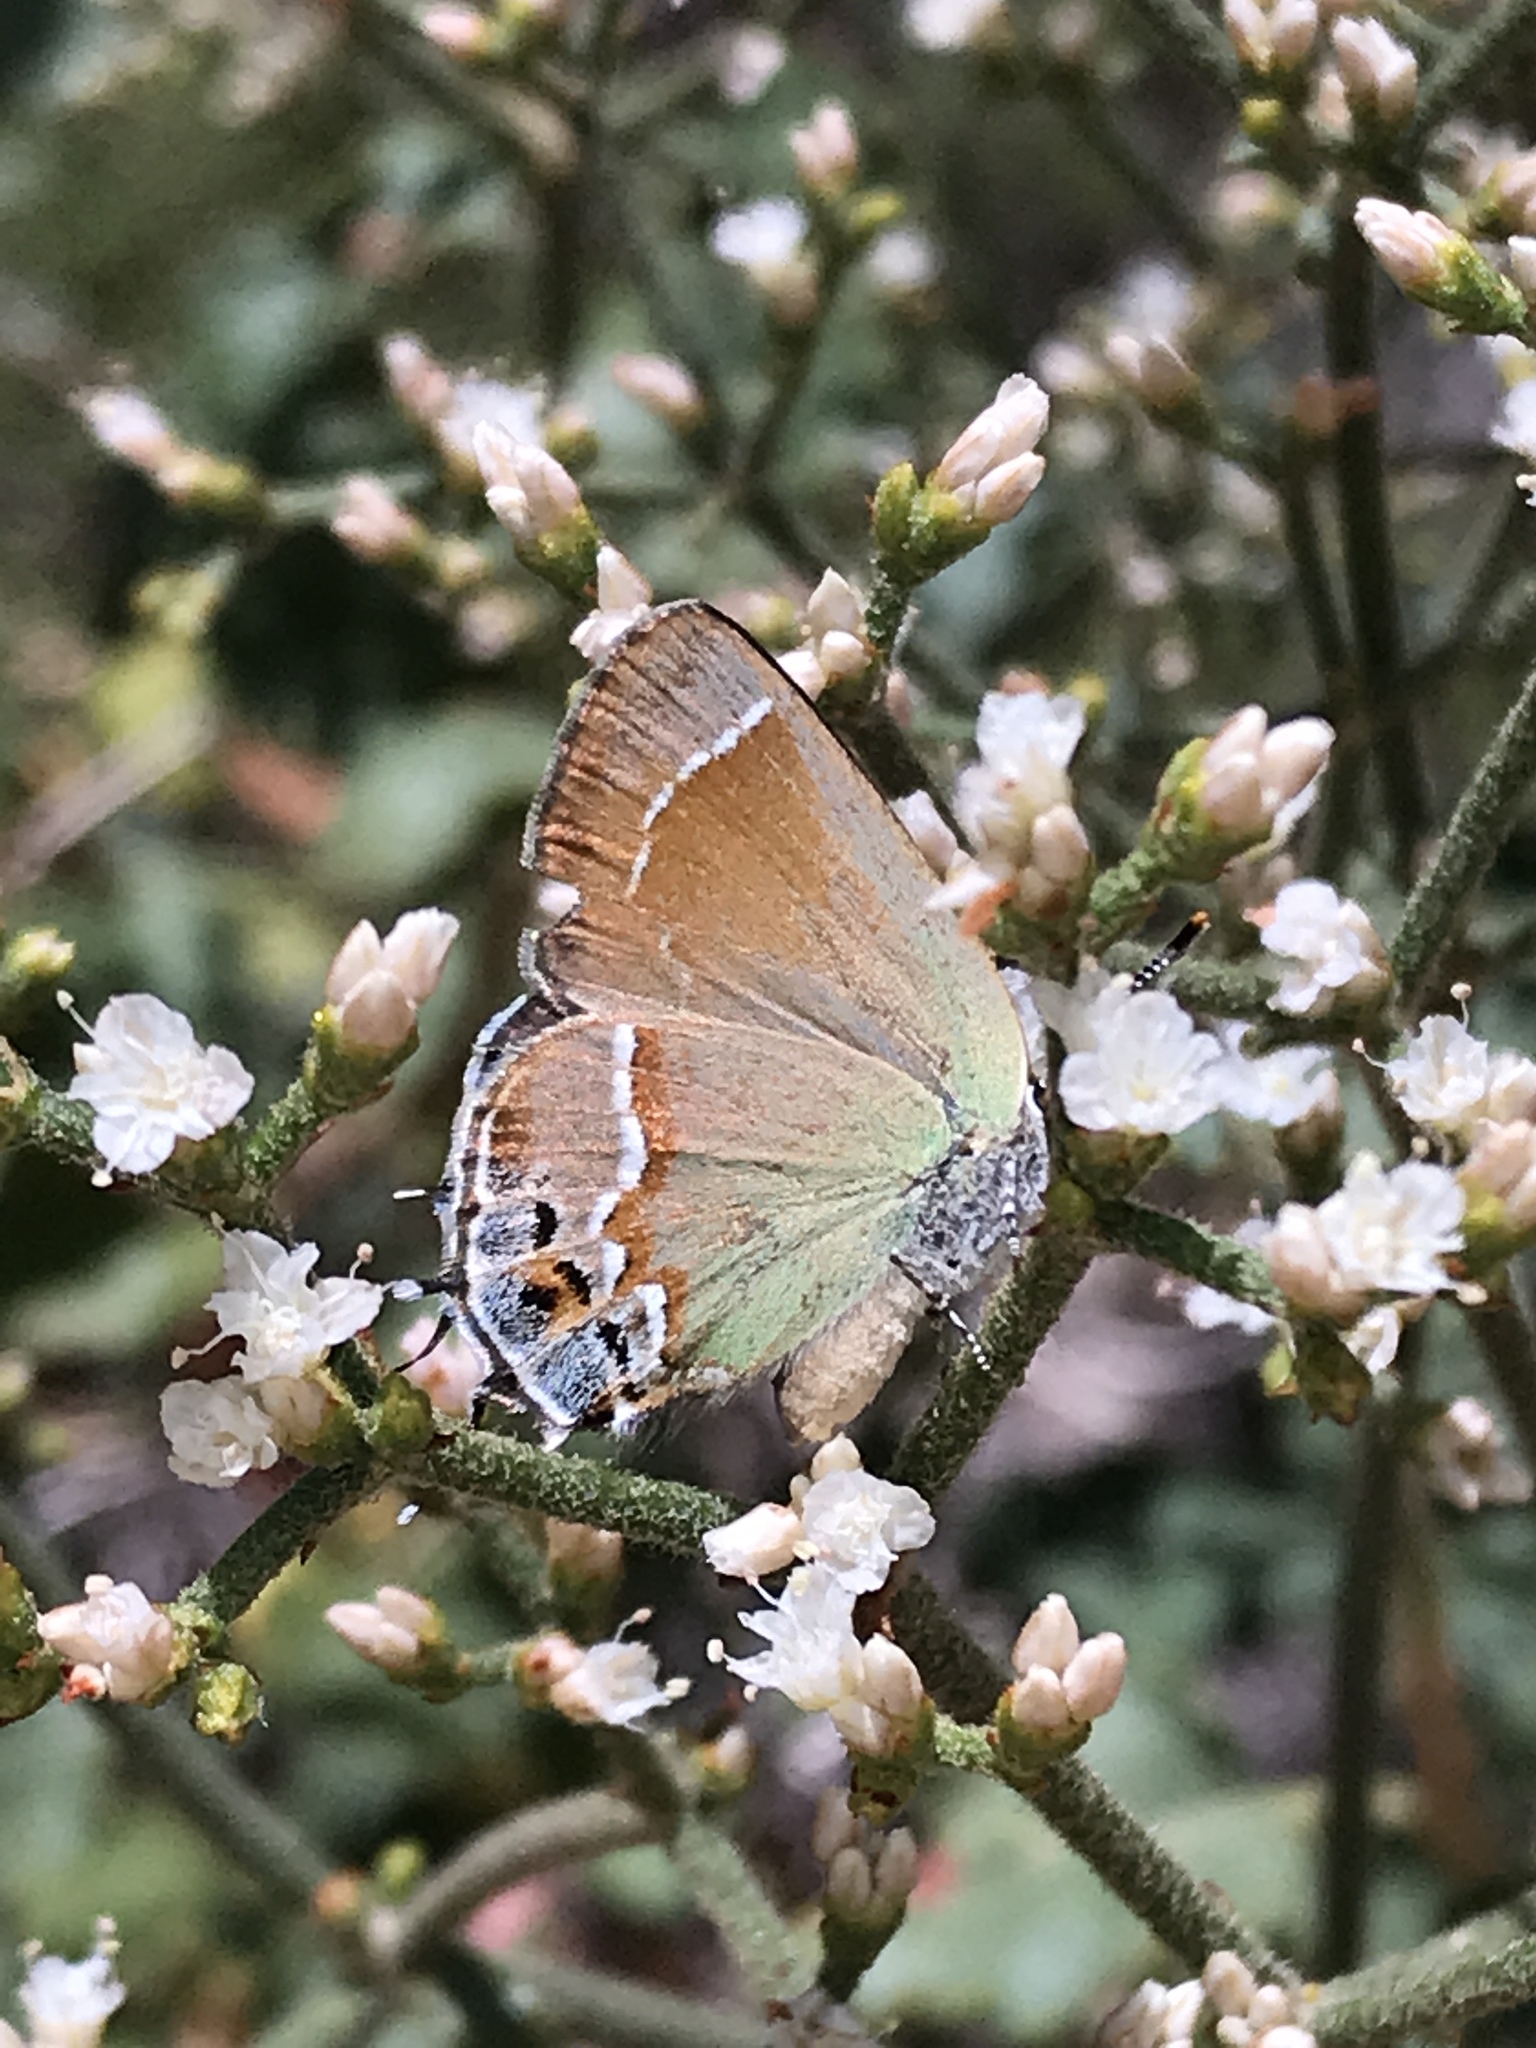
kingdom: Animalia
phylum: Arthropoda
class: Insecta
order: Lepidoptera
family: Lycaenidae
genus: Mitoura
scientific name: Mitoura siva
